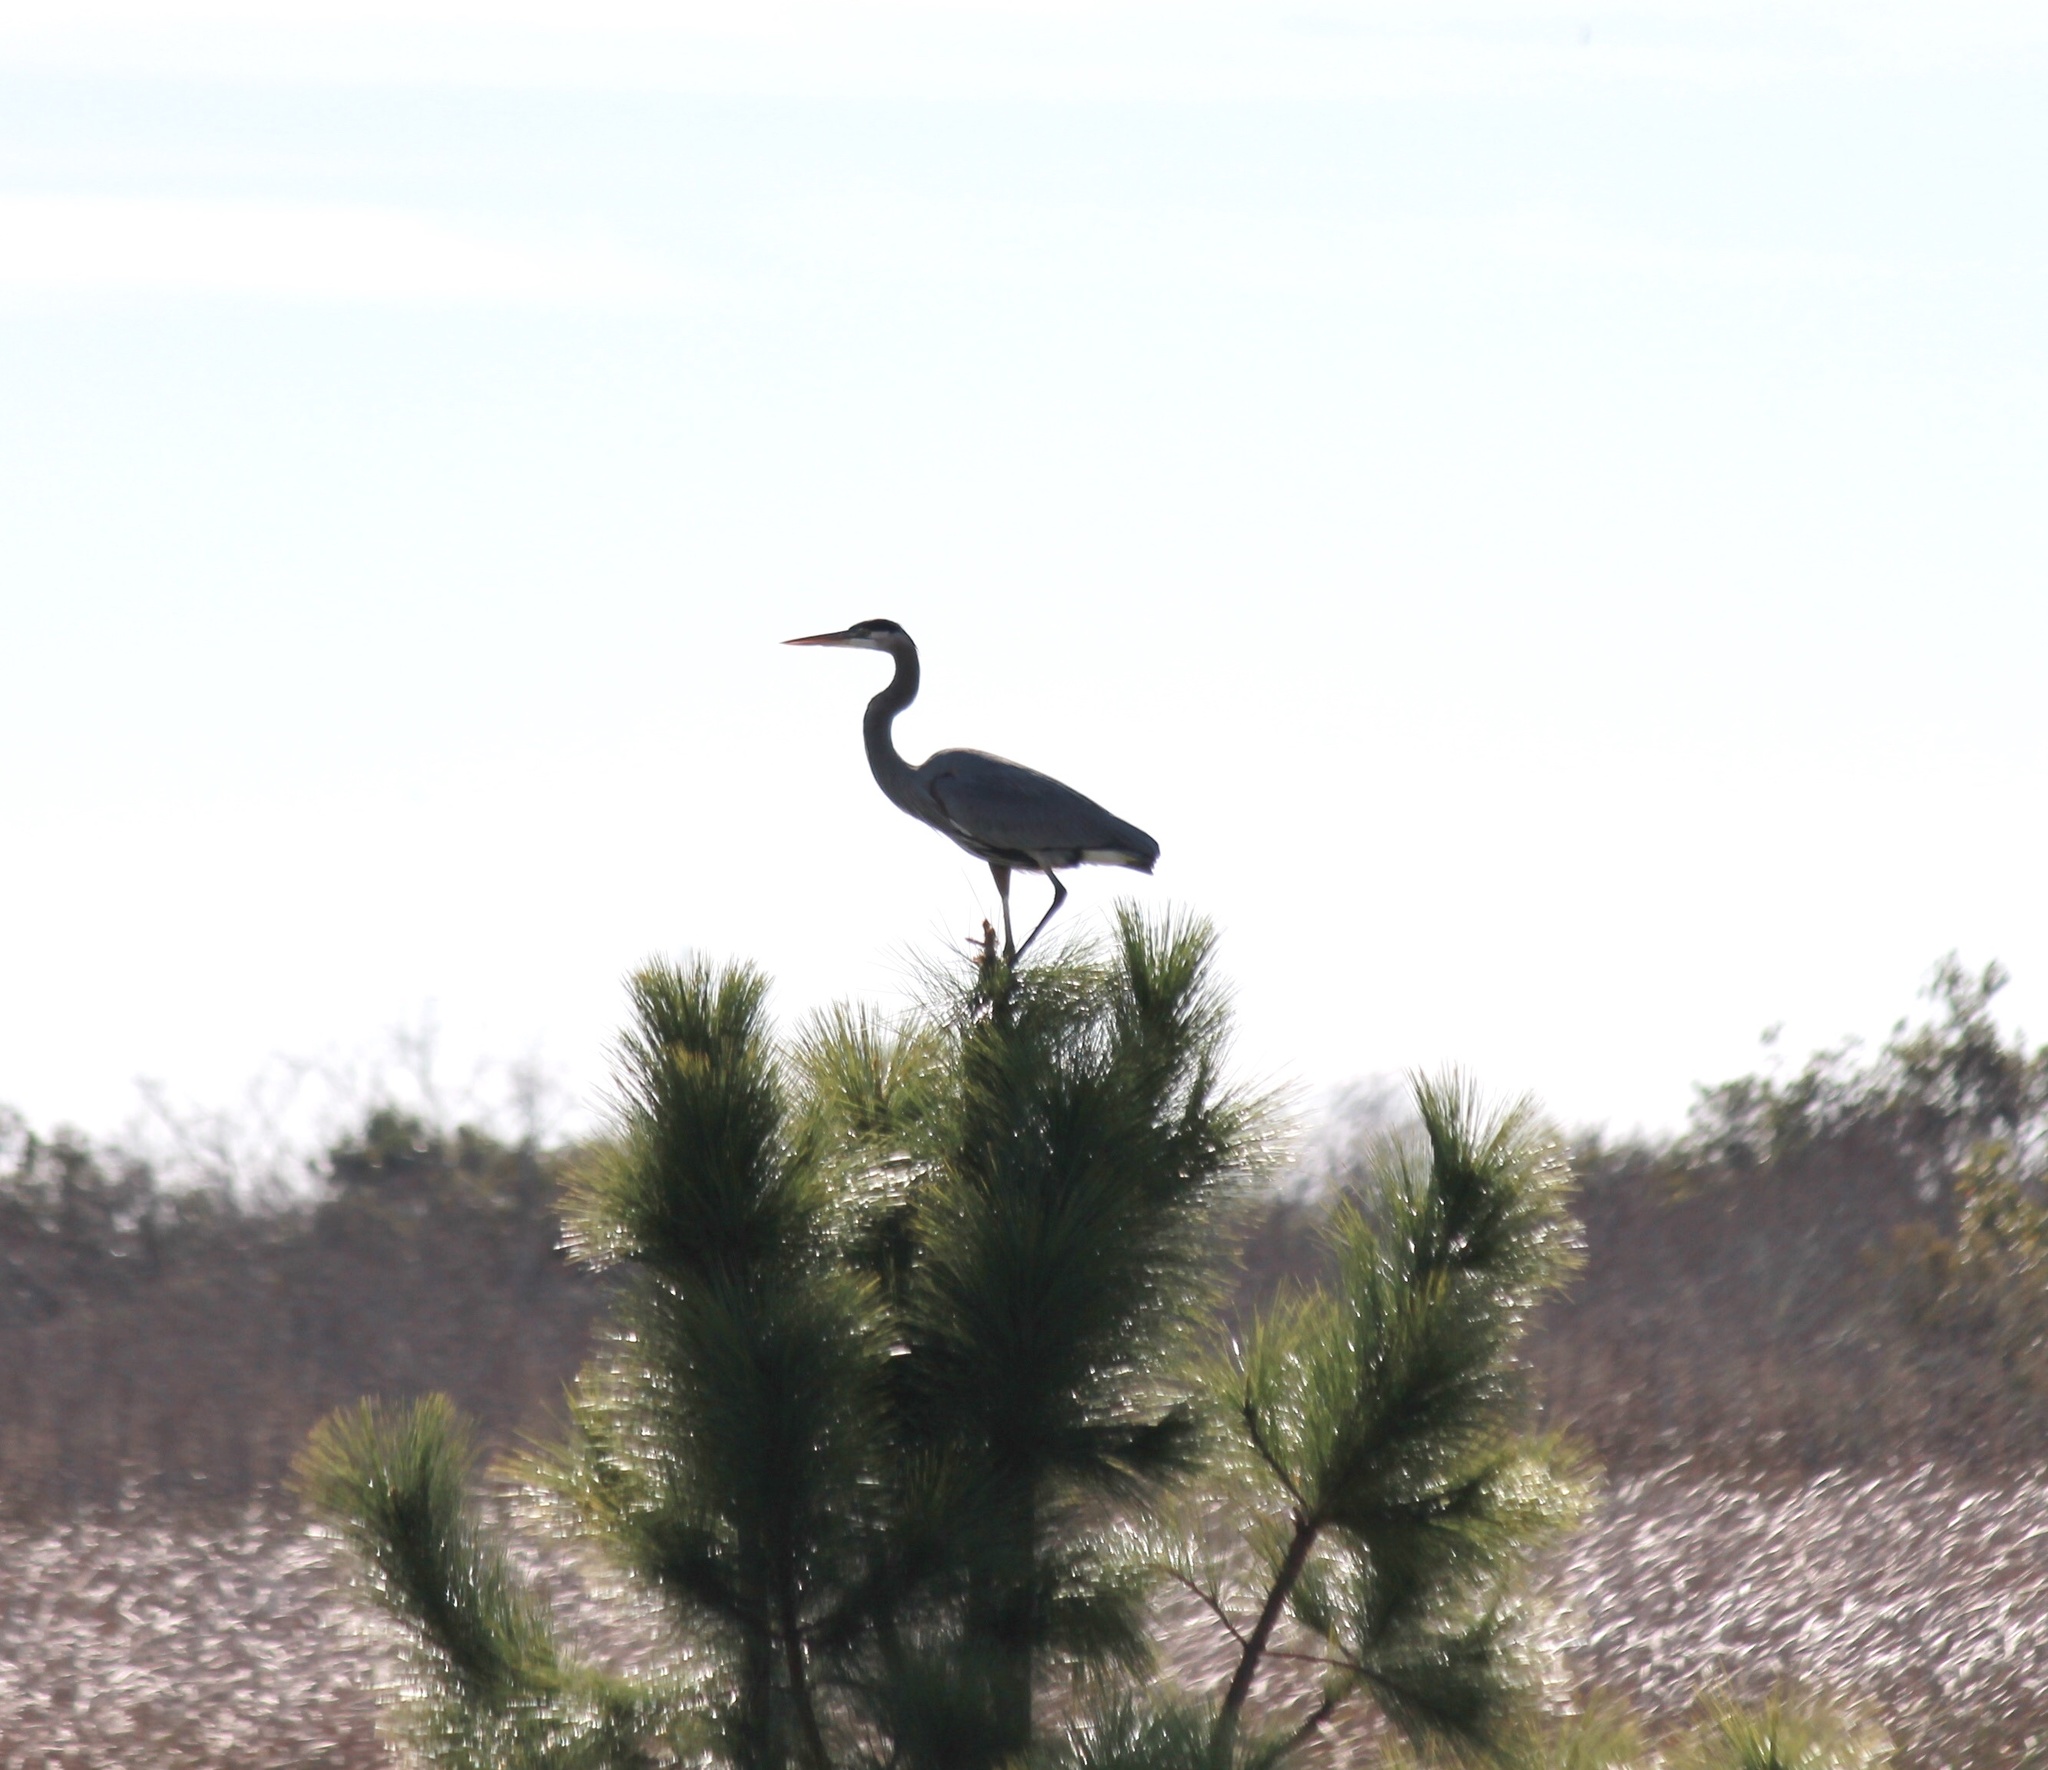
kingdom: Animalia
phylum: Chordata
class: Aves
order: Pelecaniformes
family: Ardeidae
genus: Ardea
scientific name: Ardea herodias
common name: Great blue heron
